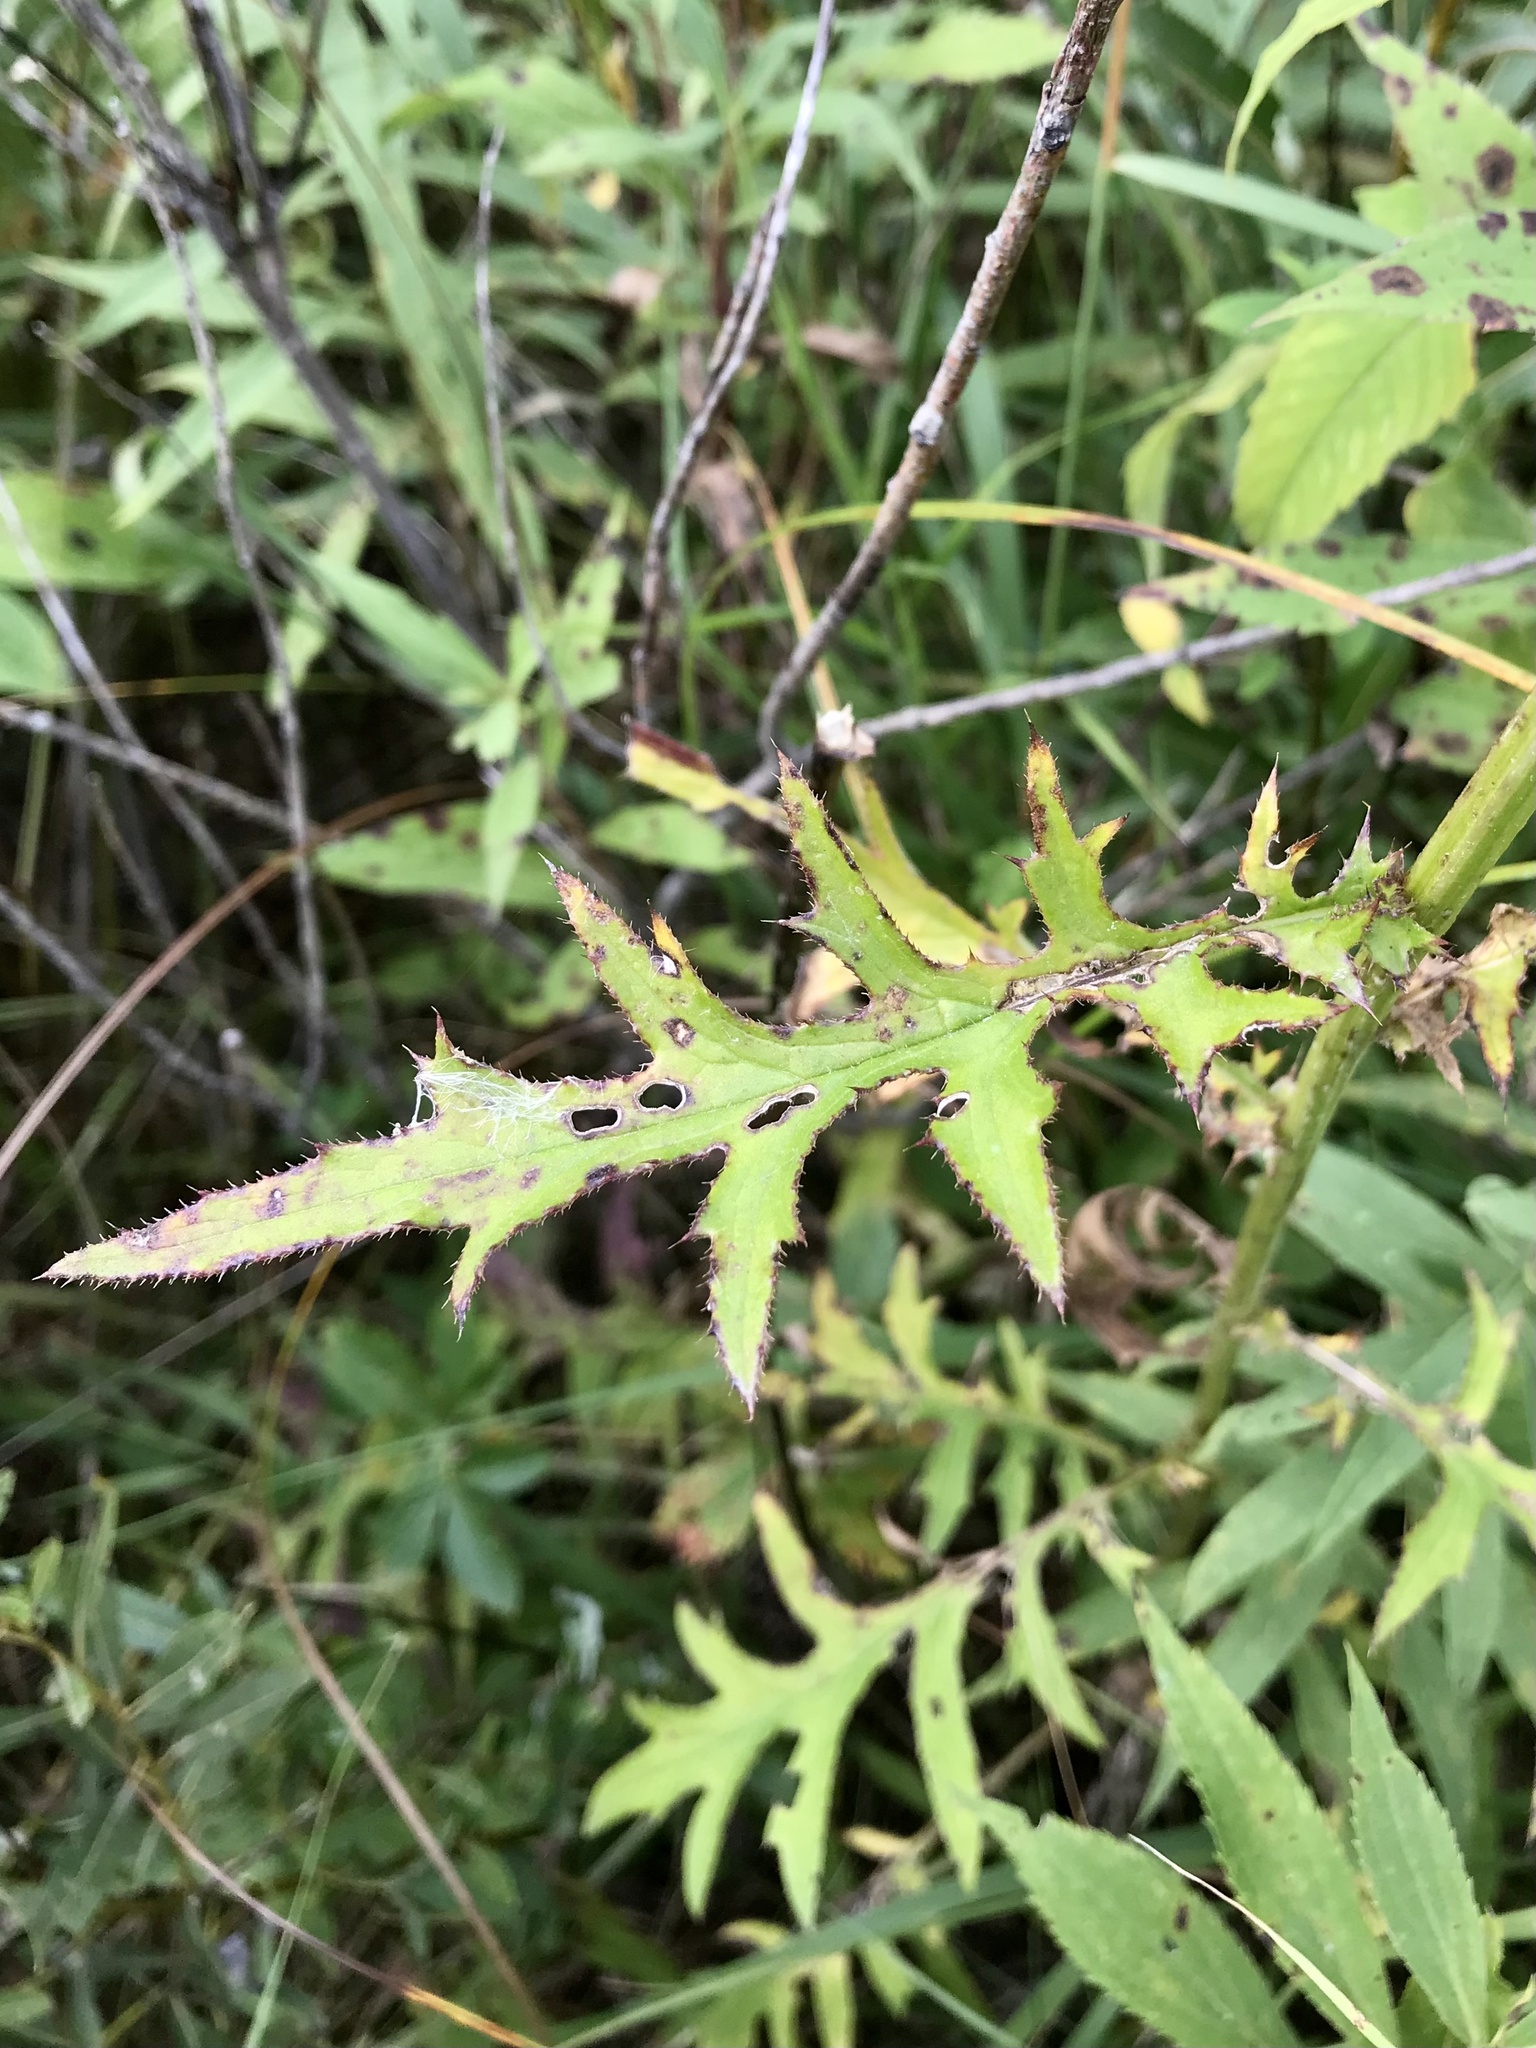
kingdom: Plantae
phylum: Tracheophyta
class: Magnoliopsida
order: Asterales
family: Asteraceae
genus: Cirsium
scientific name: Cirsium muticum
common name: Dunce-nettle
